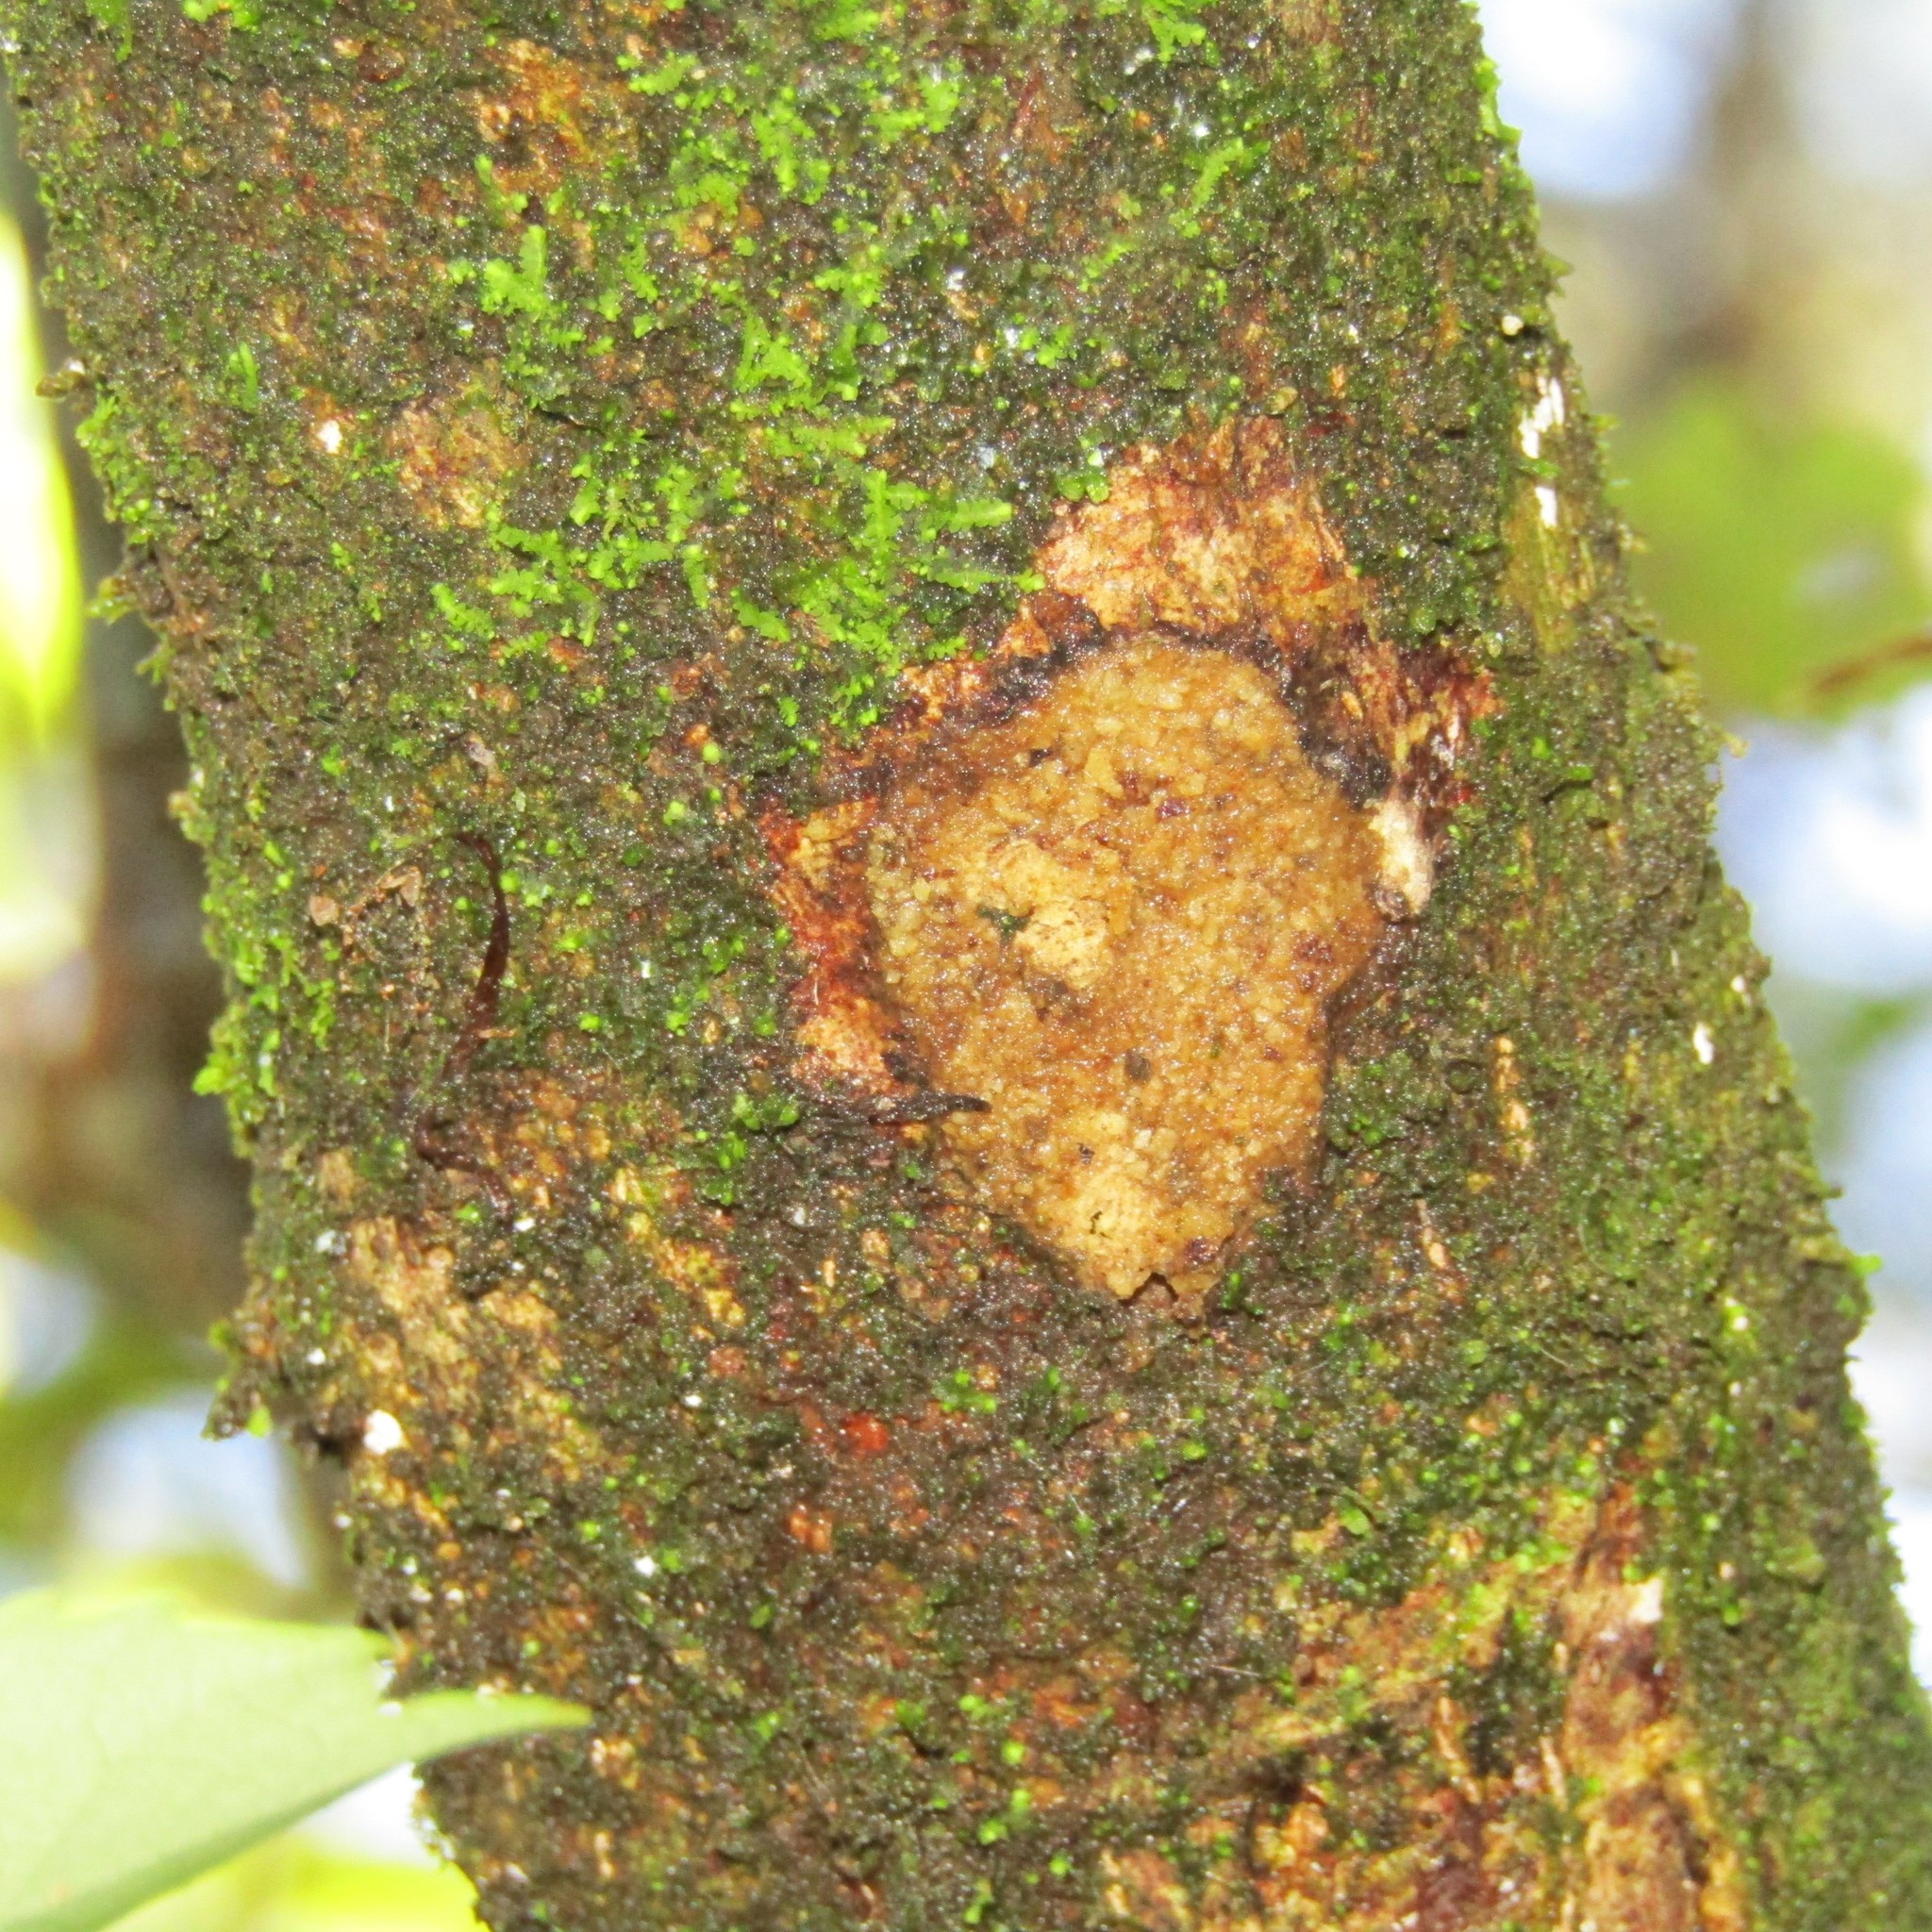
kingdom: Animalia
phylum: Arthropoda
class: Insecta
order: Lepidoptera
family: Hepialidae
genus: Aenetus
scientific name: Aenetus virescens
